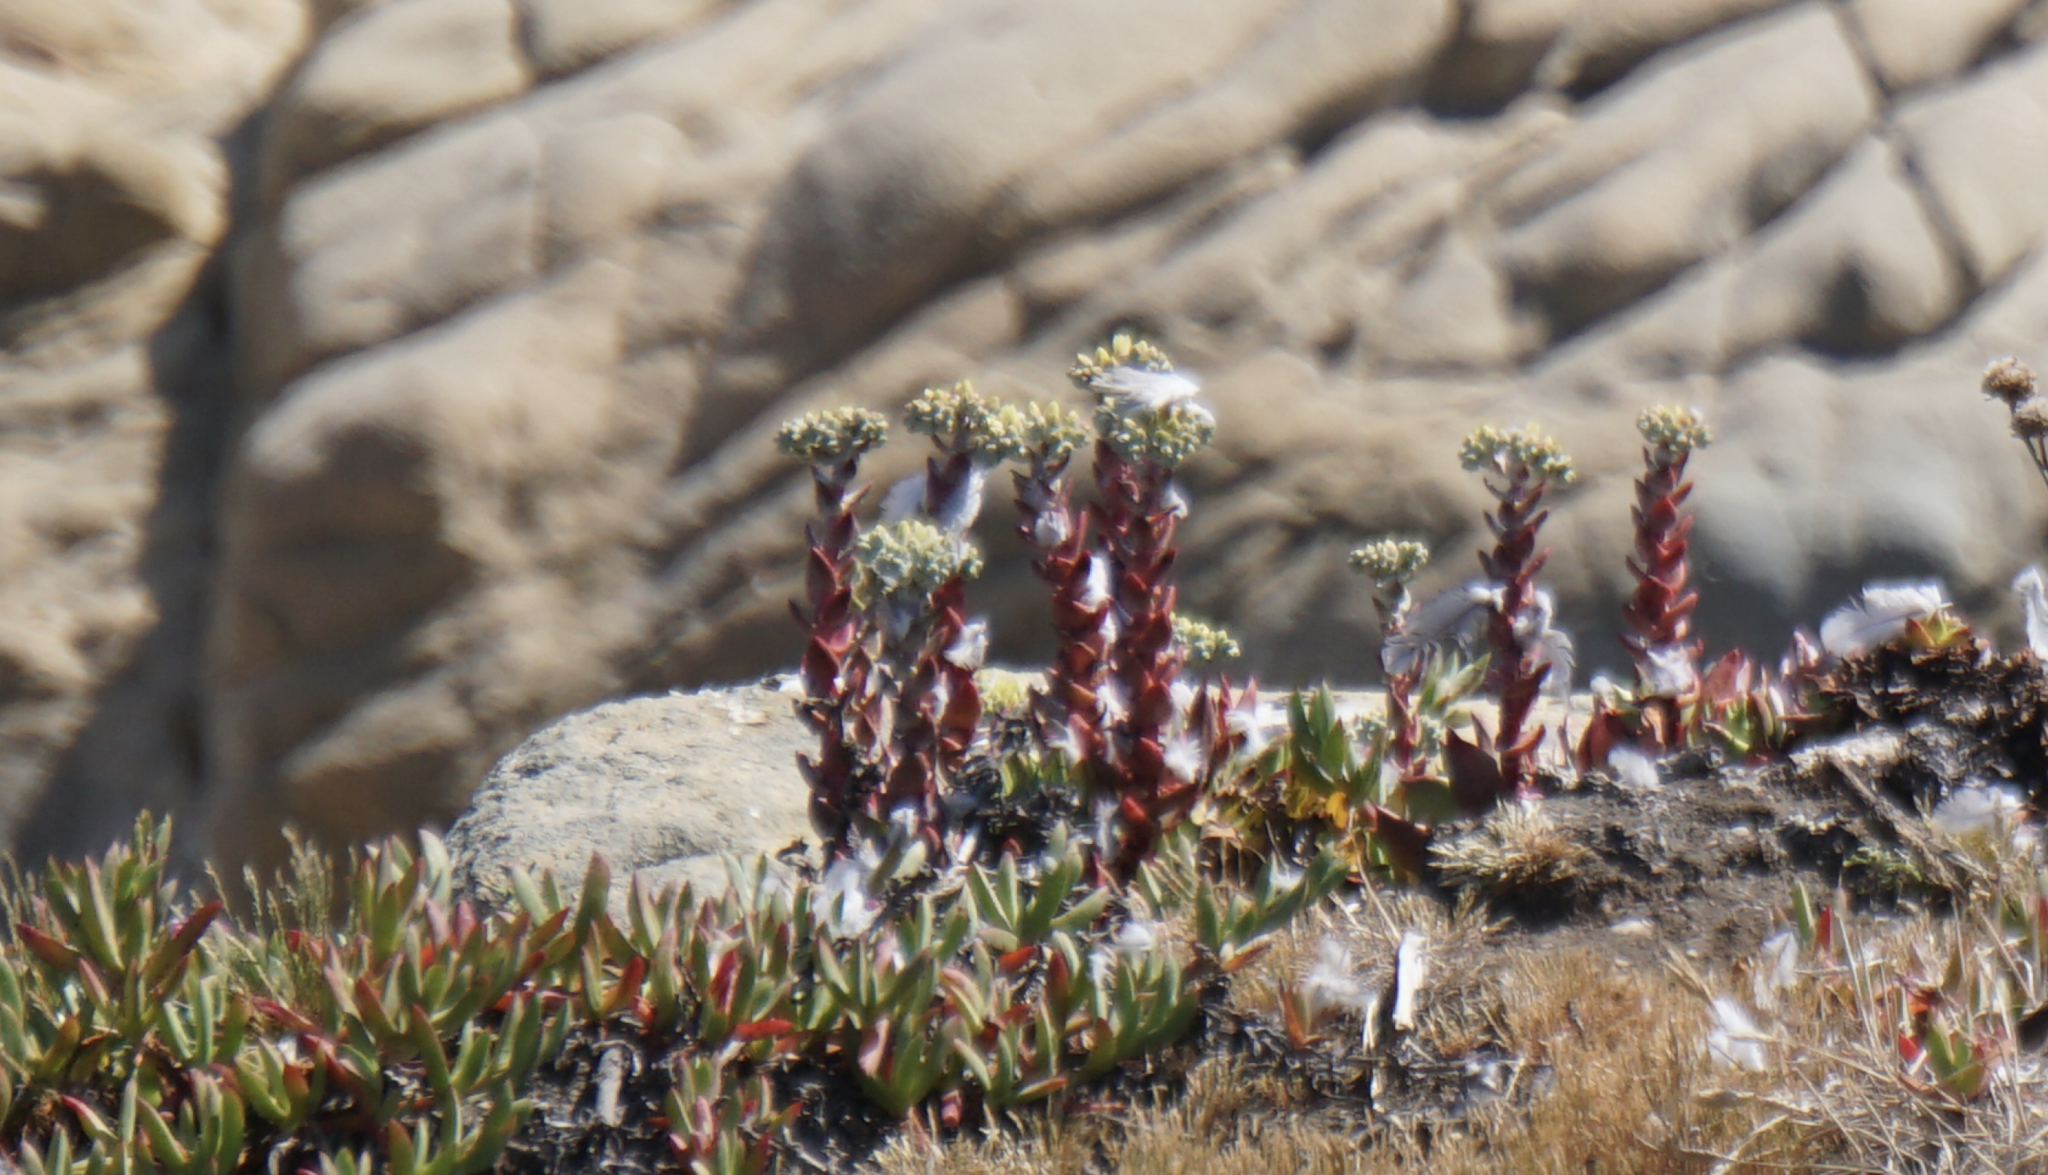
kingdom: Plantae
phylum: Tracheophyta
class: Magnoliopsida
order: Saxifragales
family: Crassulaceae
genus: Dudleya
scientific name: Dudleya farinosa
